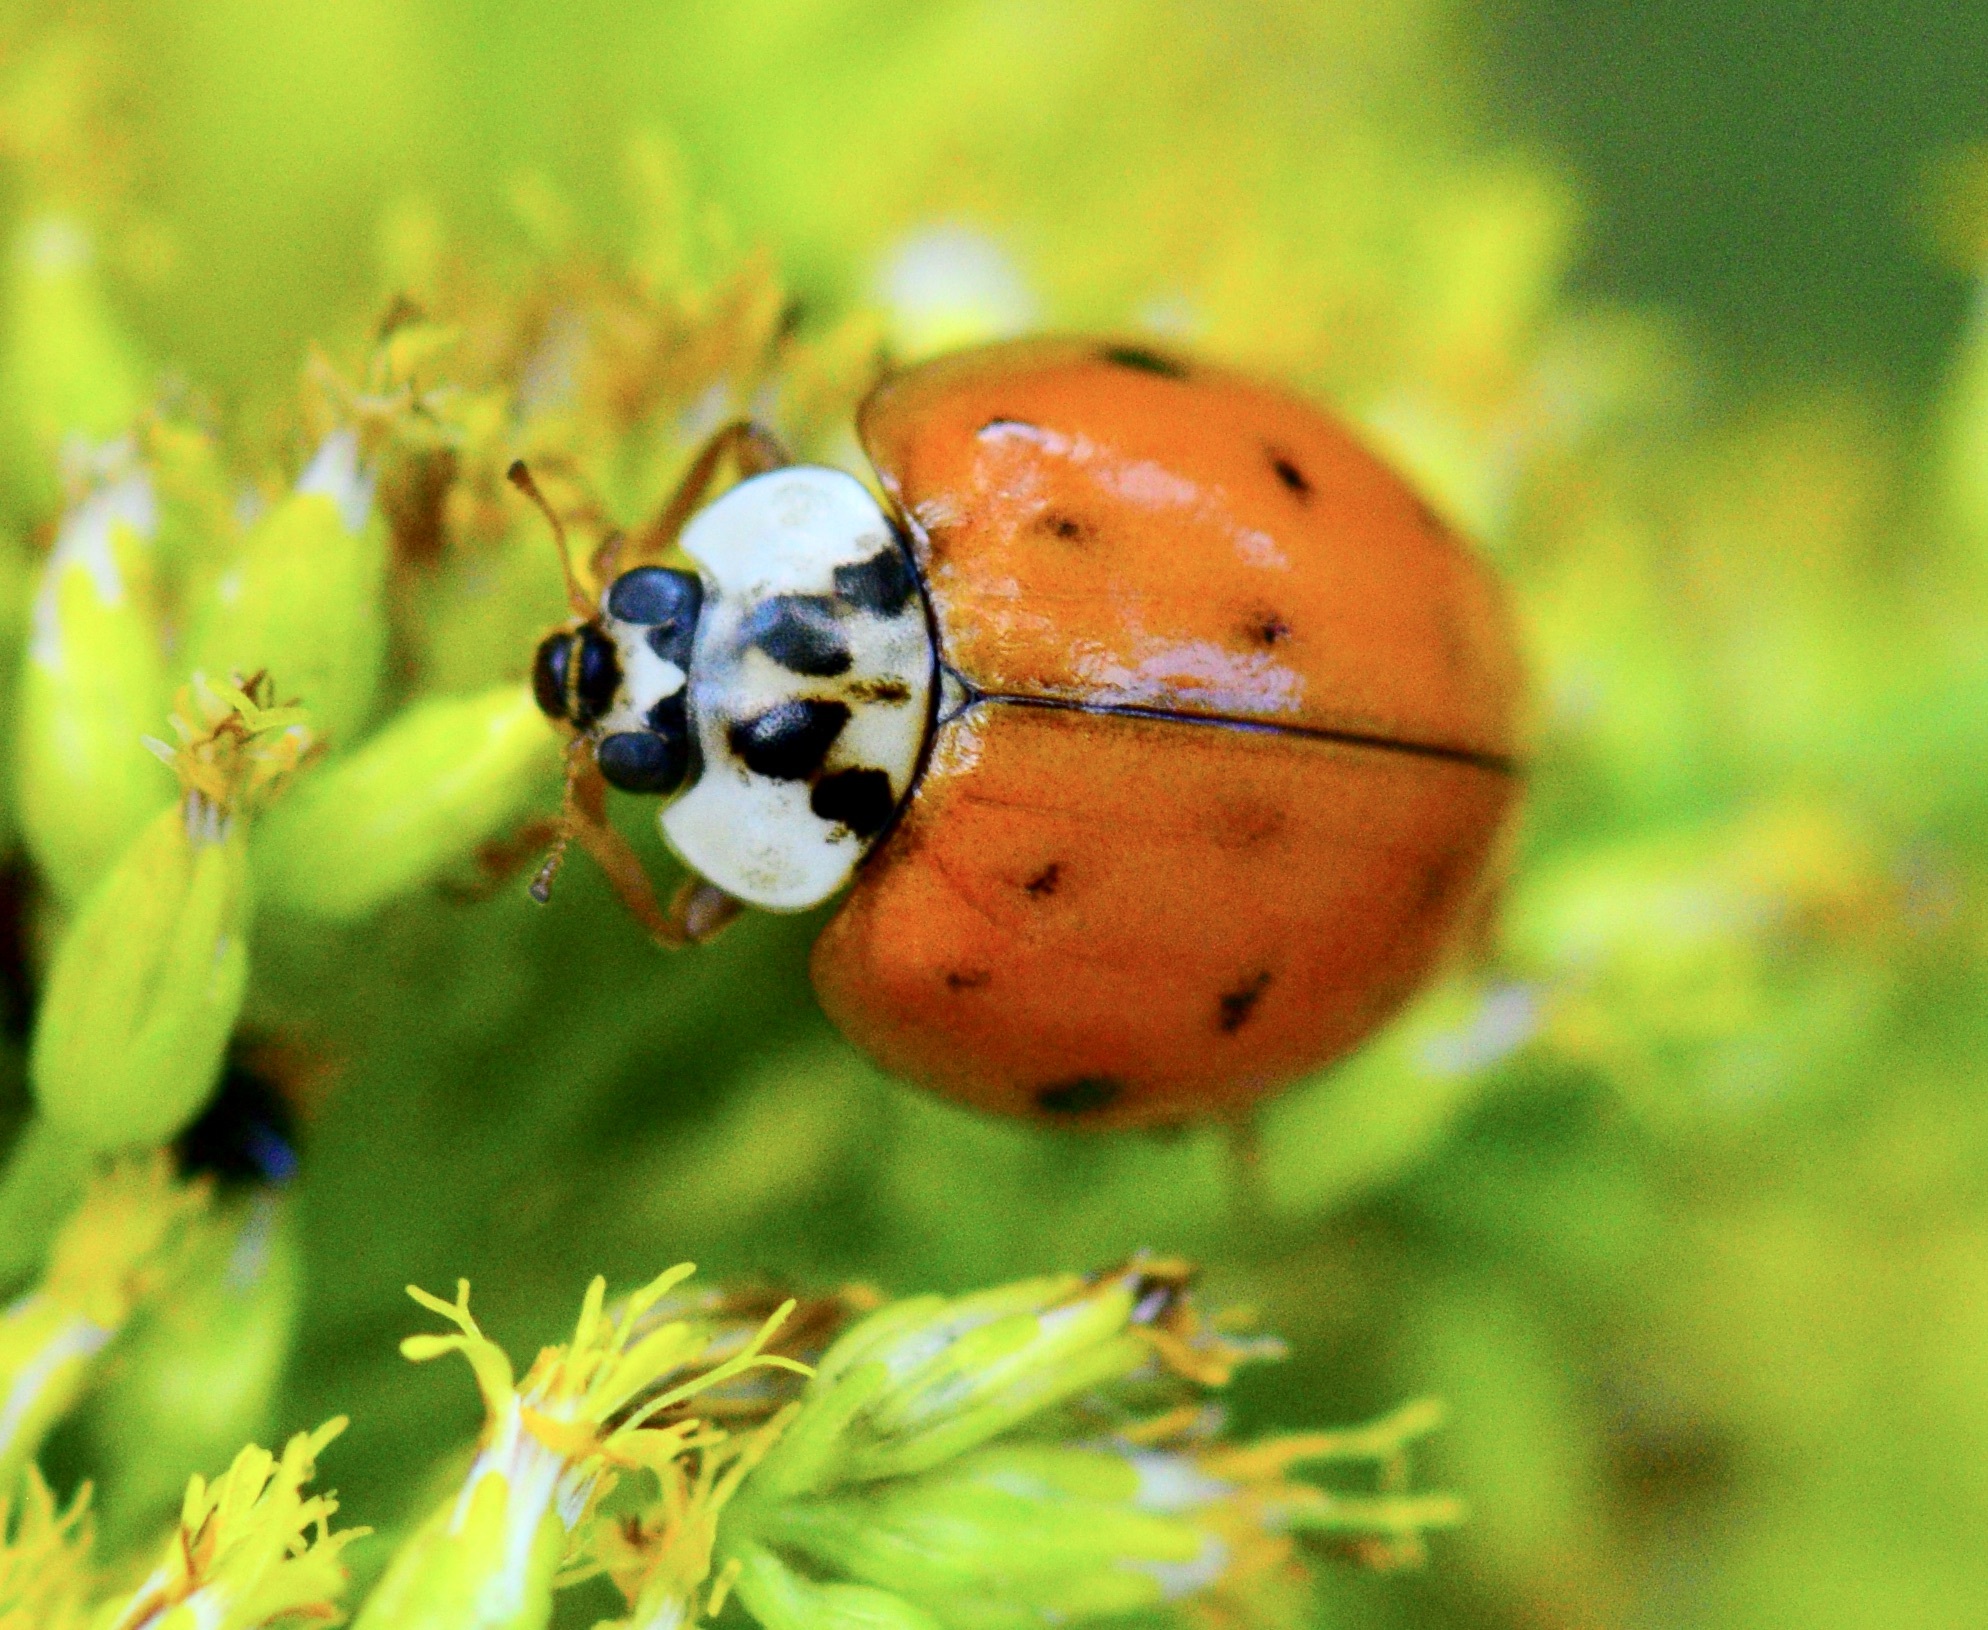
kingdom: Animalia
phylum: Arthropoda
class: Insecta
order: Coleoptera
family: Coccinellidae
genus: Harmonia
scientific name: Harmonia axyridis
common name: Harlequin ladybird
